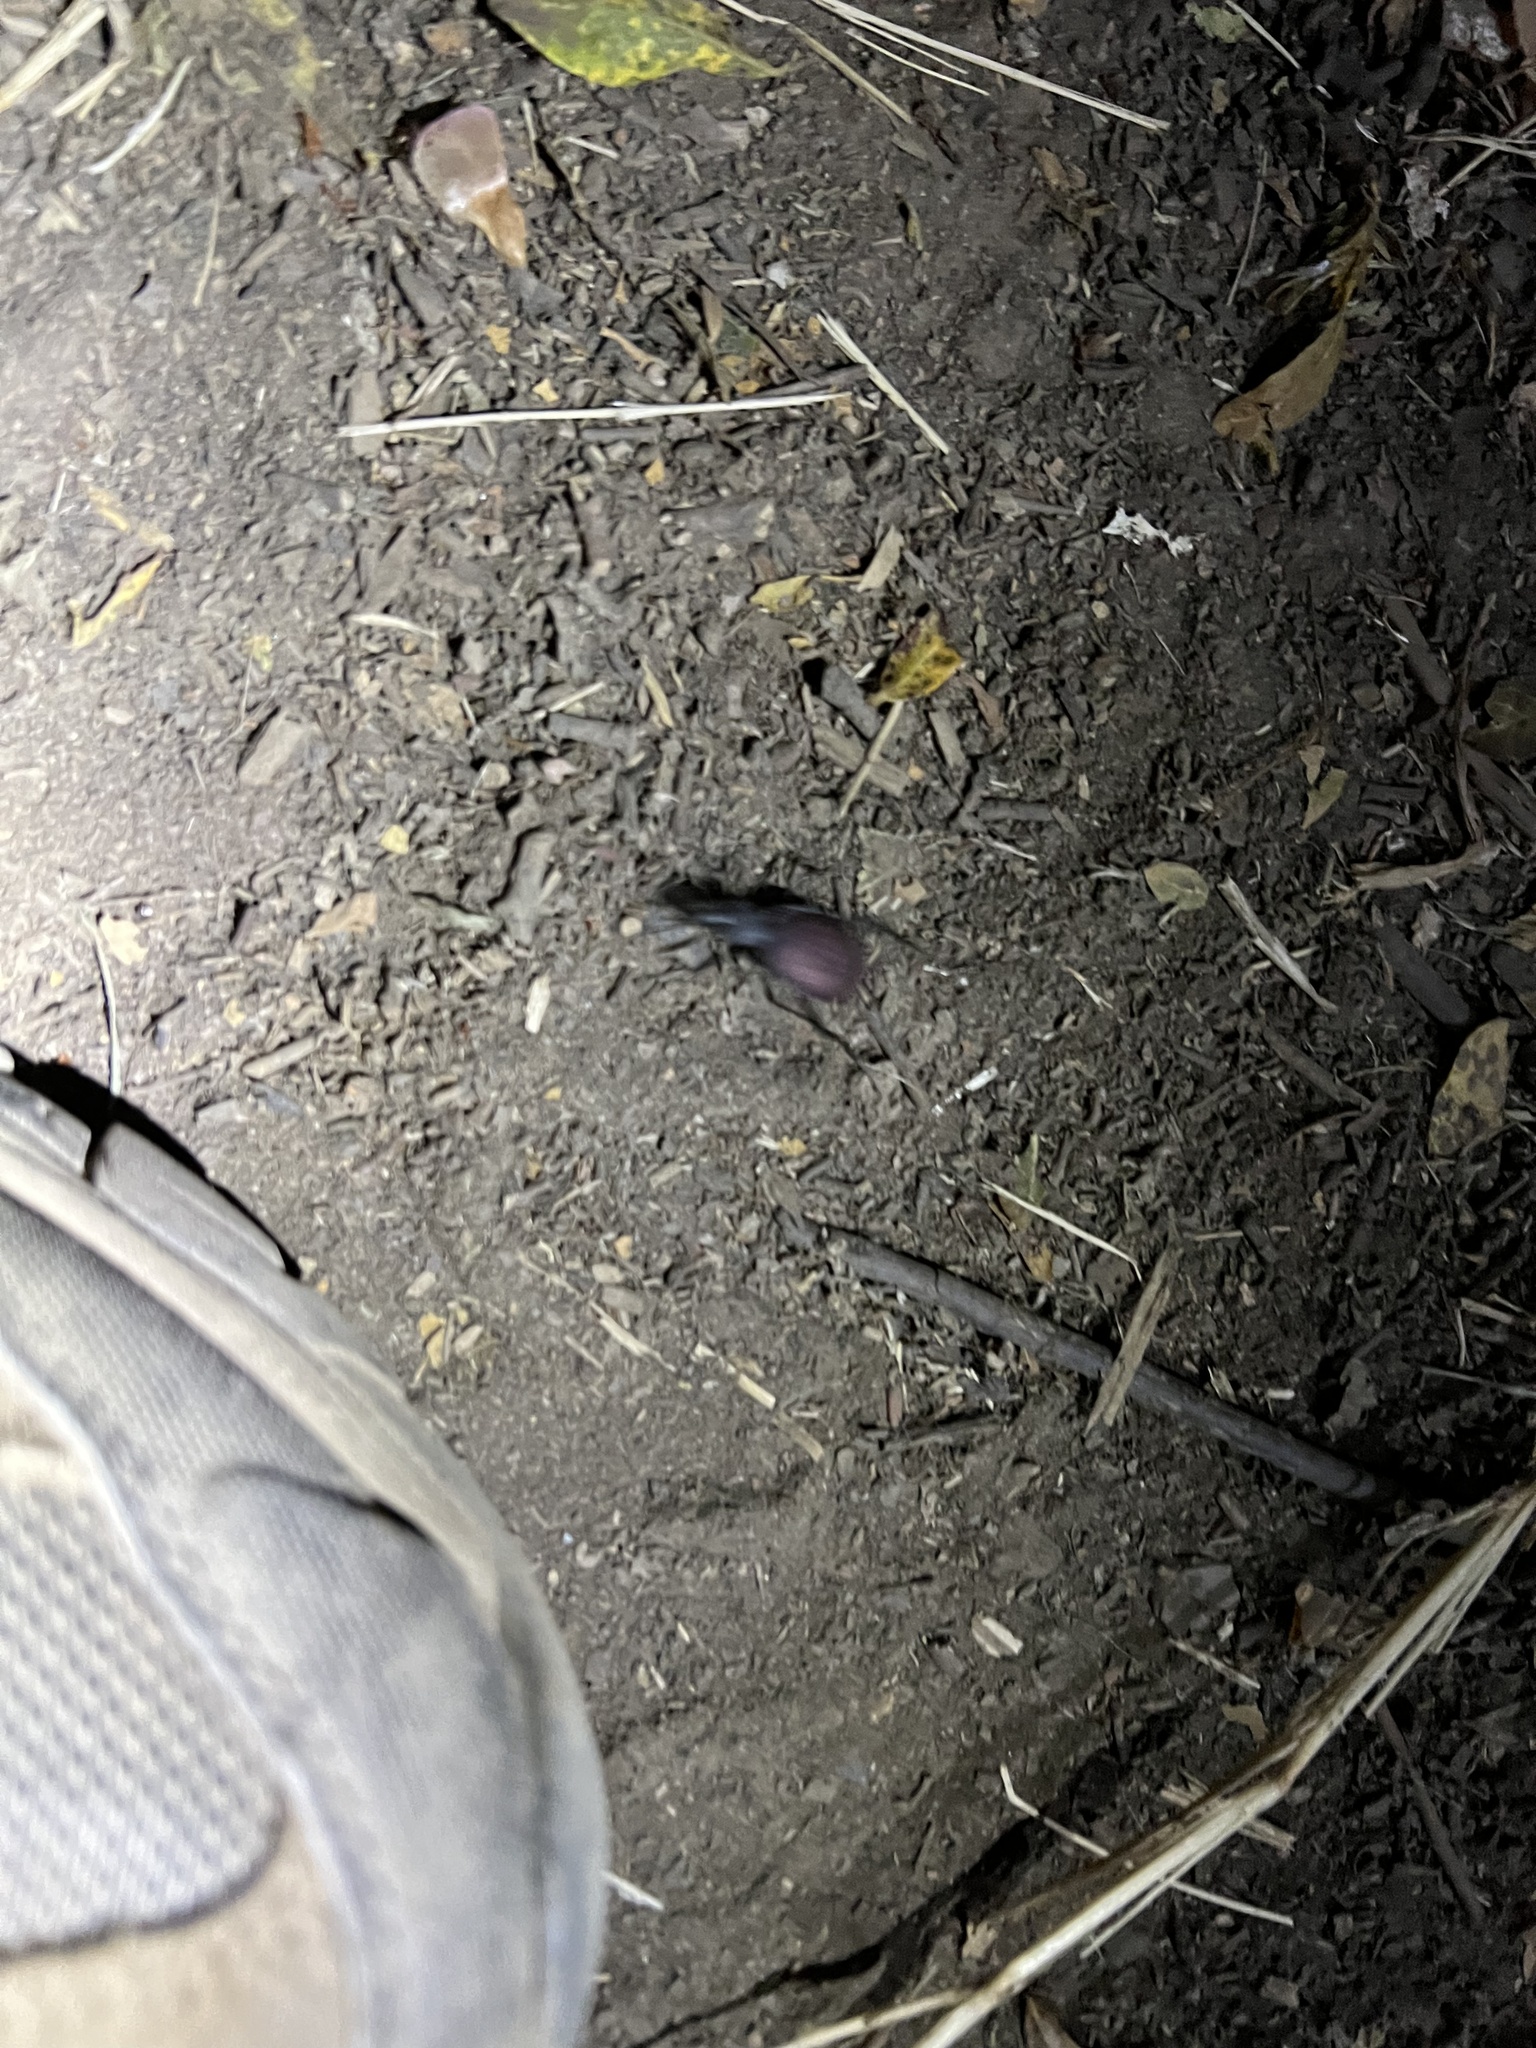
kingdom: Animalia
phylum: Arthropoda
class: Insecta
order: Coleoptera
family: Carabidae
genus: Scaphinotus
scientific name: Scaphinotus angusticollis
